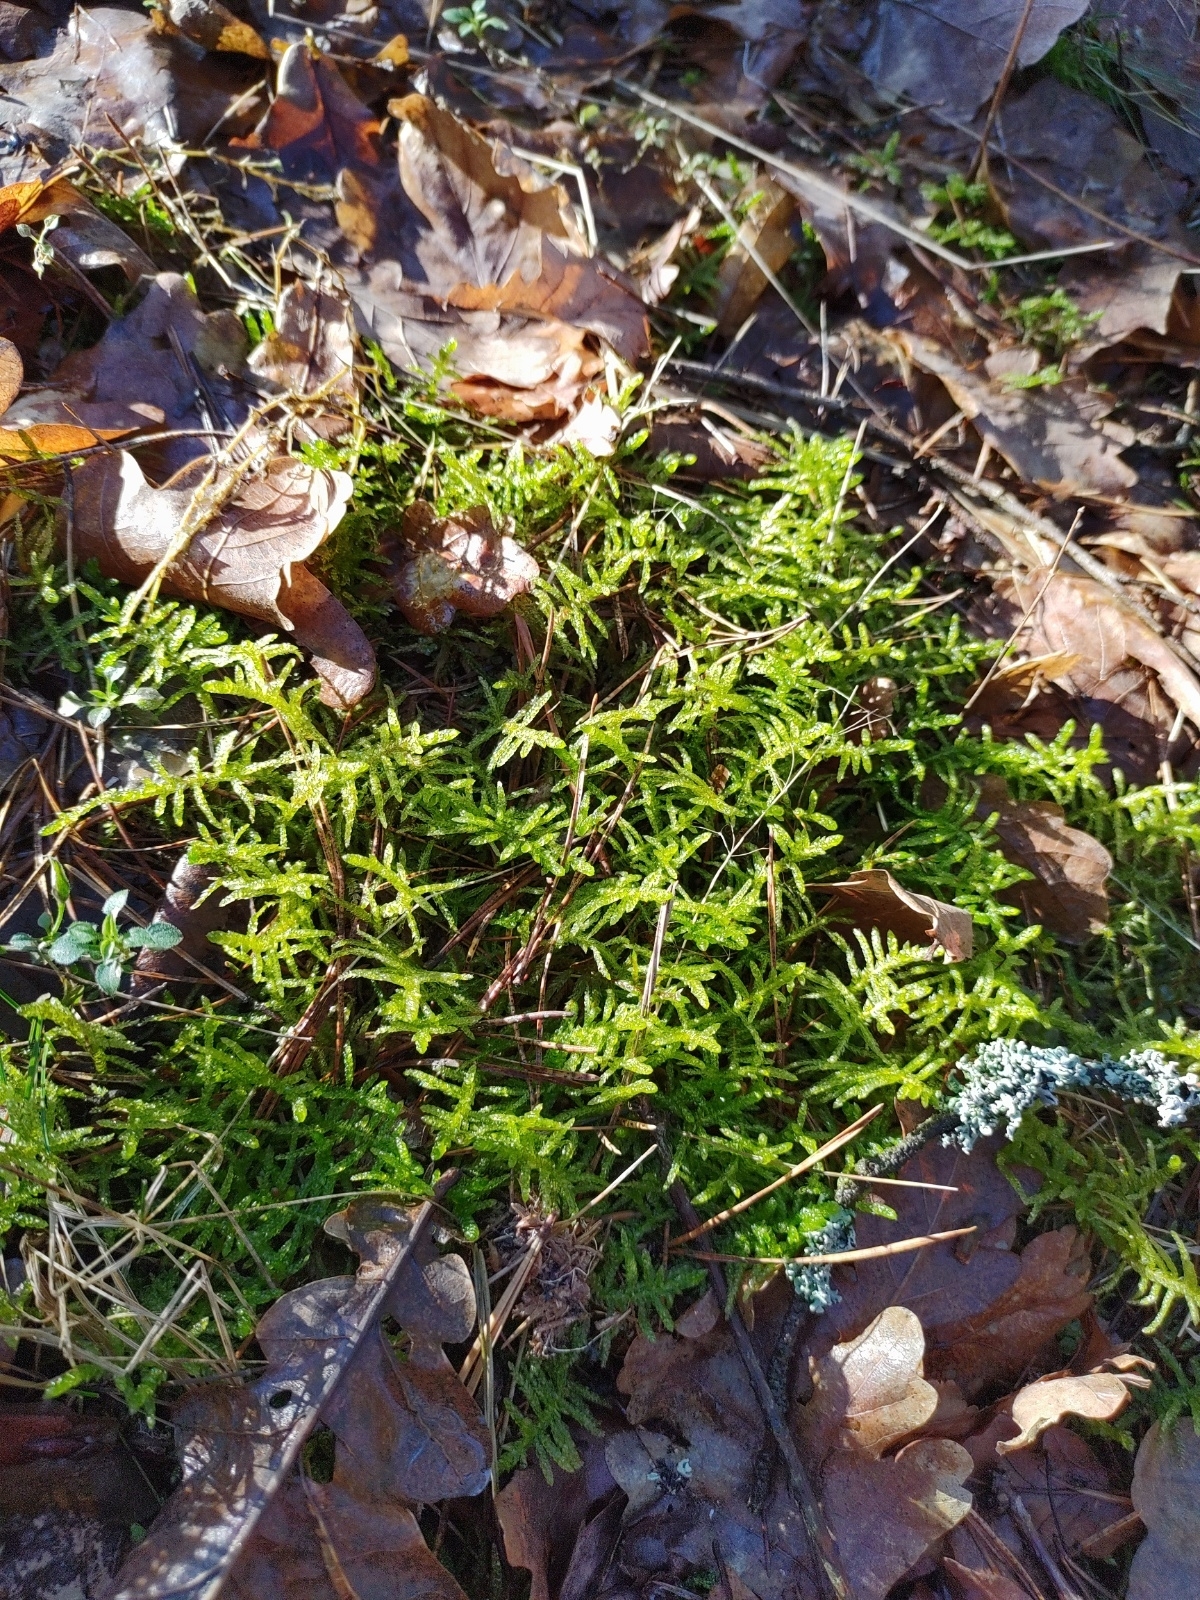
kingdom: Plantae
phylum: Bryophyta
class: Bryopsida
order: Hypnales
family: Brachytheciaceae
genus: Pseudoscleropodium
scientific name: Pseudoscleropodium purum
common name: Neat feather-moss
